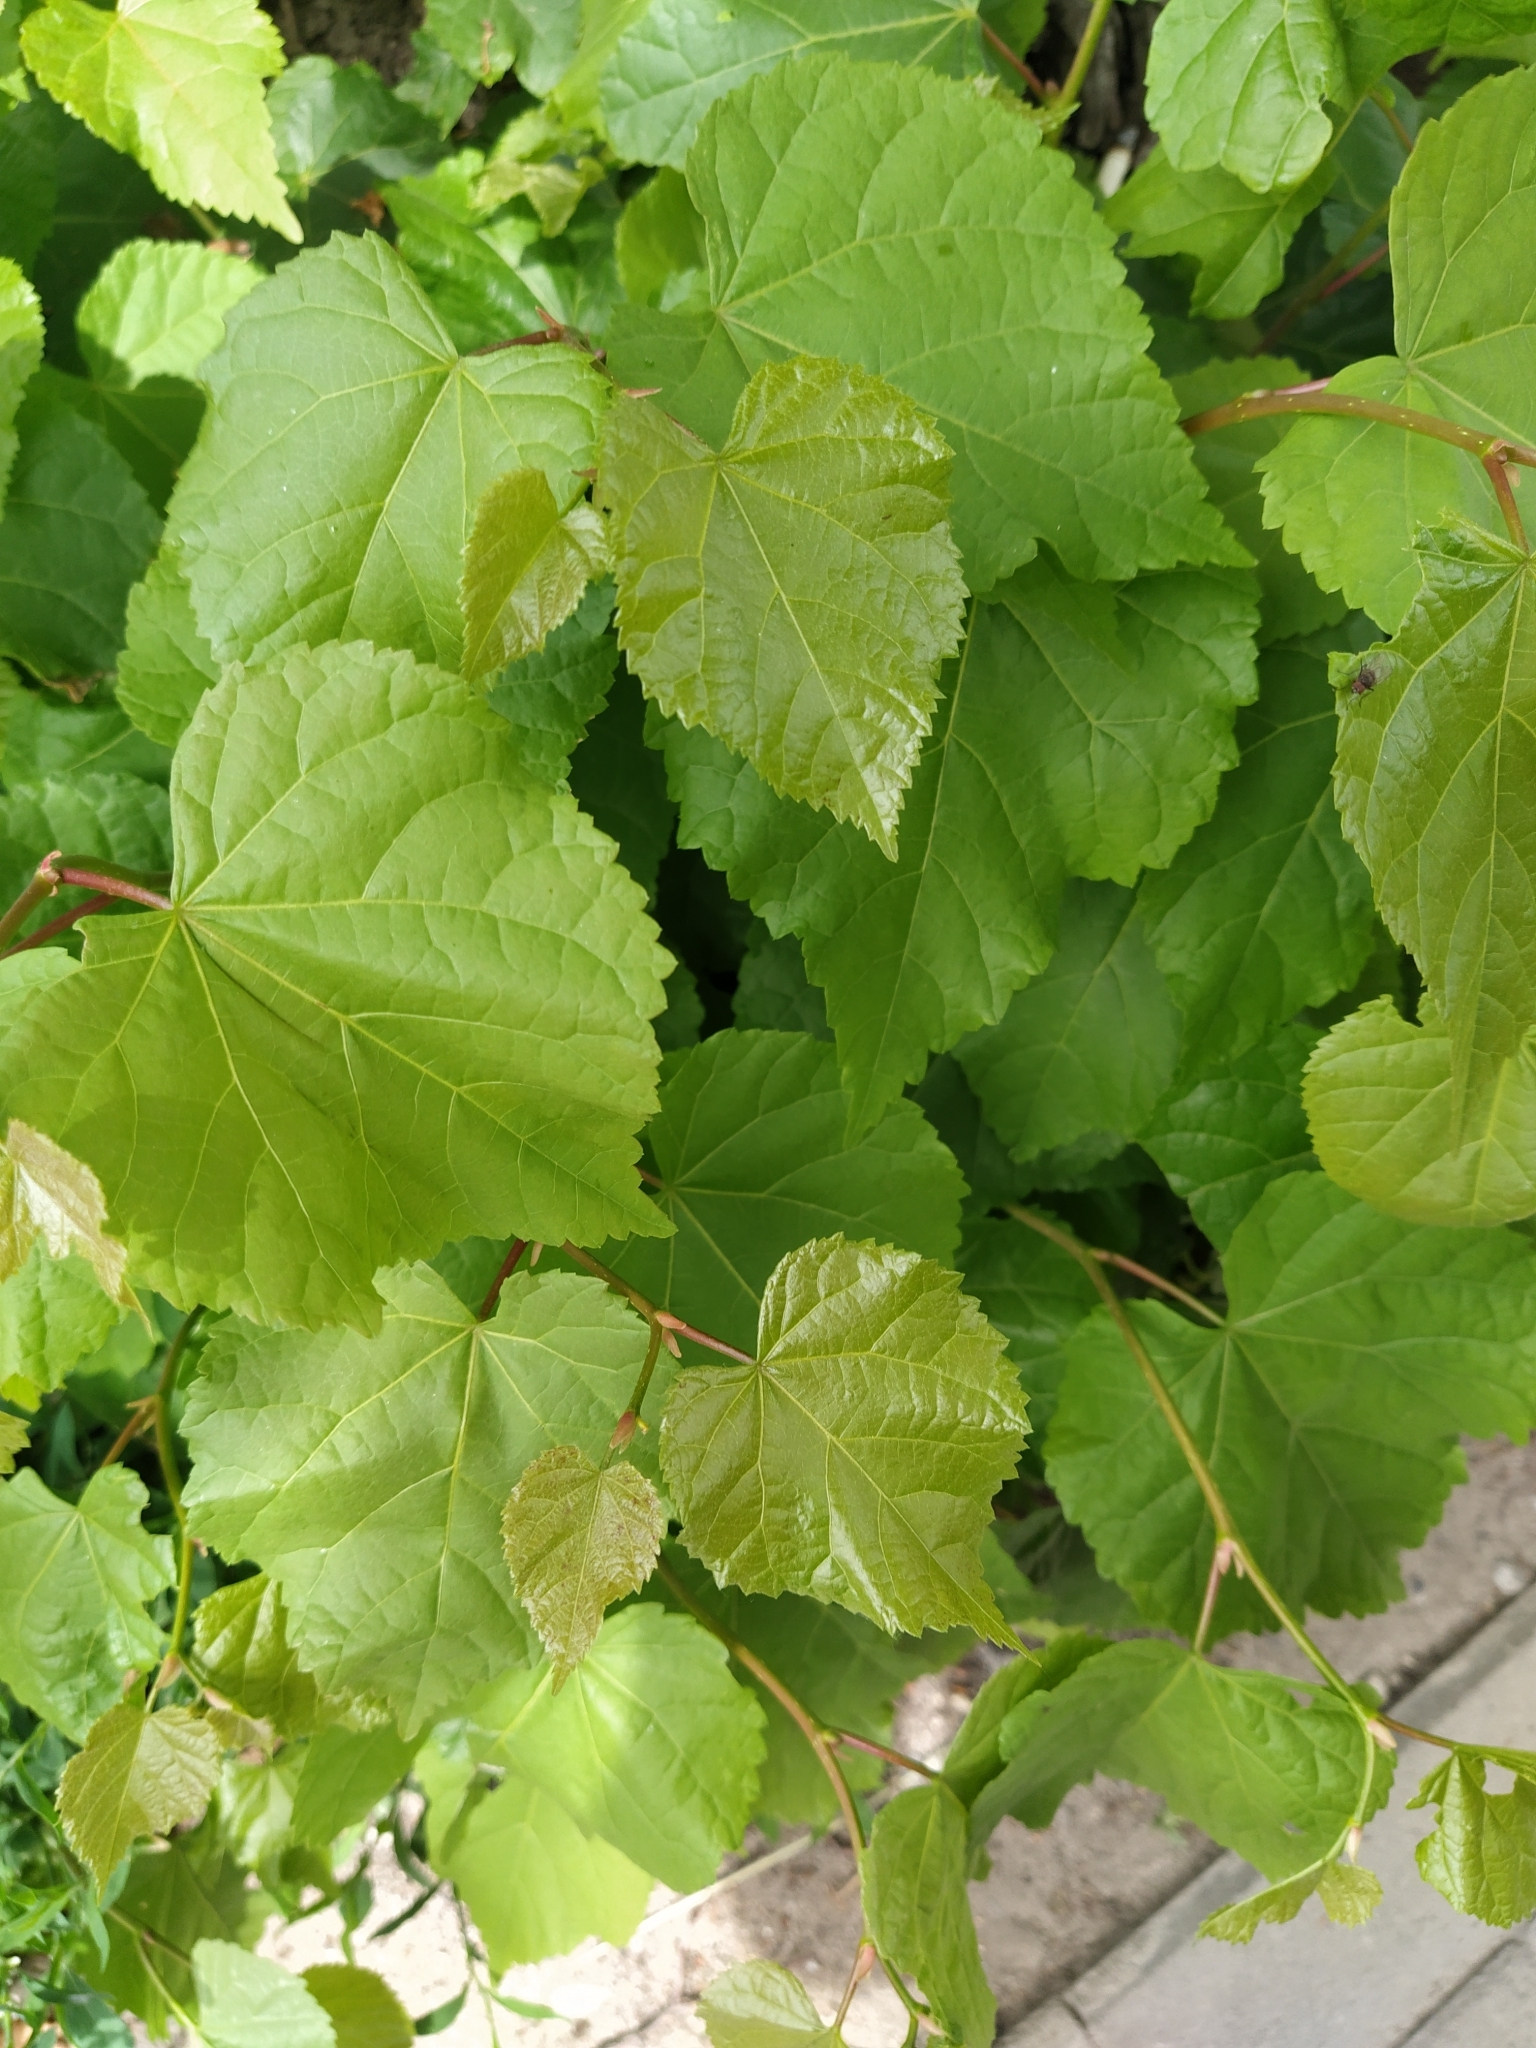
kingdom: Plantae
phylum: Tracheophyta
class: Magnoliopsida
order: Malvales
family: Malvaceae
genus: Tilia
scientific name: Tilia cordata
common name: Small-leaved lime
